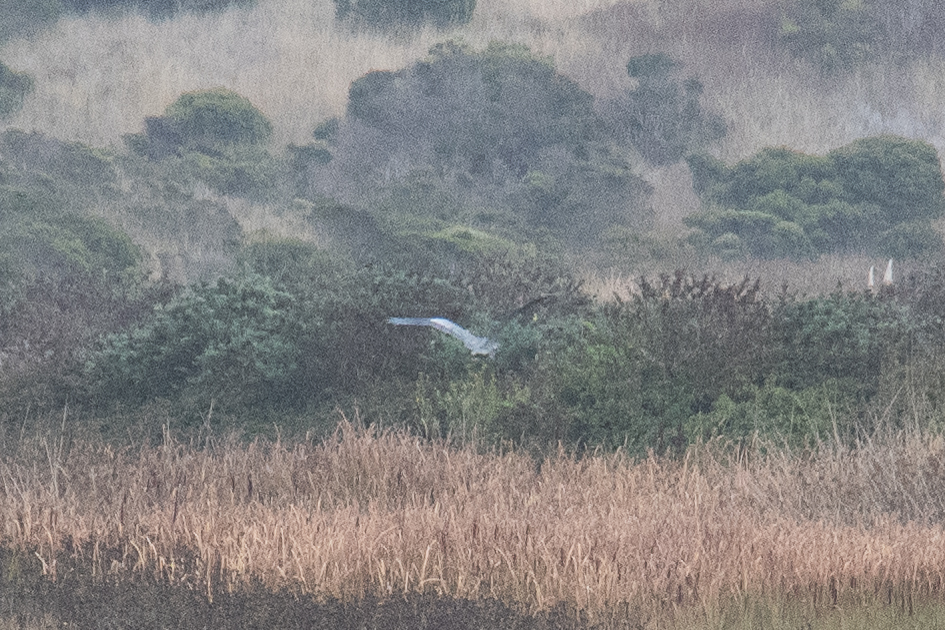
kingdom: Animalia
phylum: Chordata
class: Aves
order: Pelecaniformes
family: Ardeidae
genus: Ardea
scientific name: Ardea herodias
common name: Great blue heron
